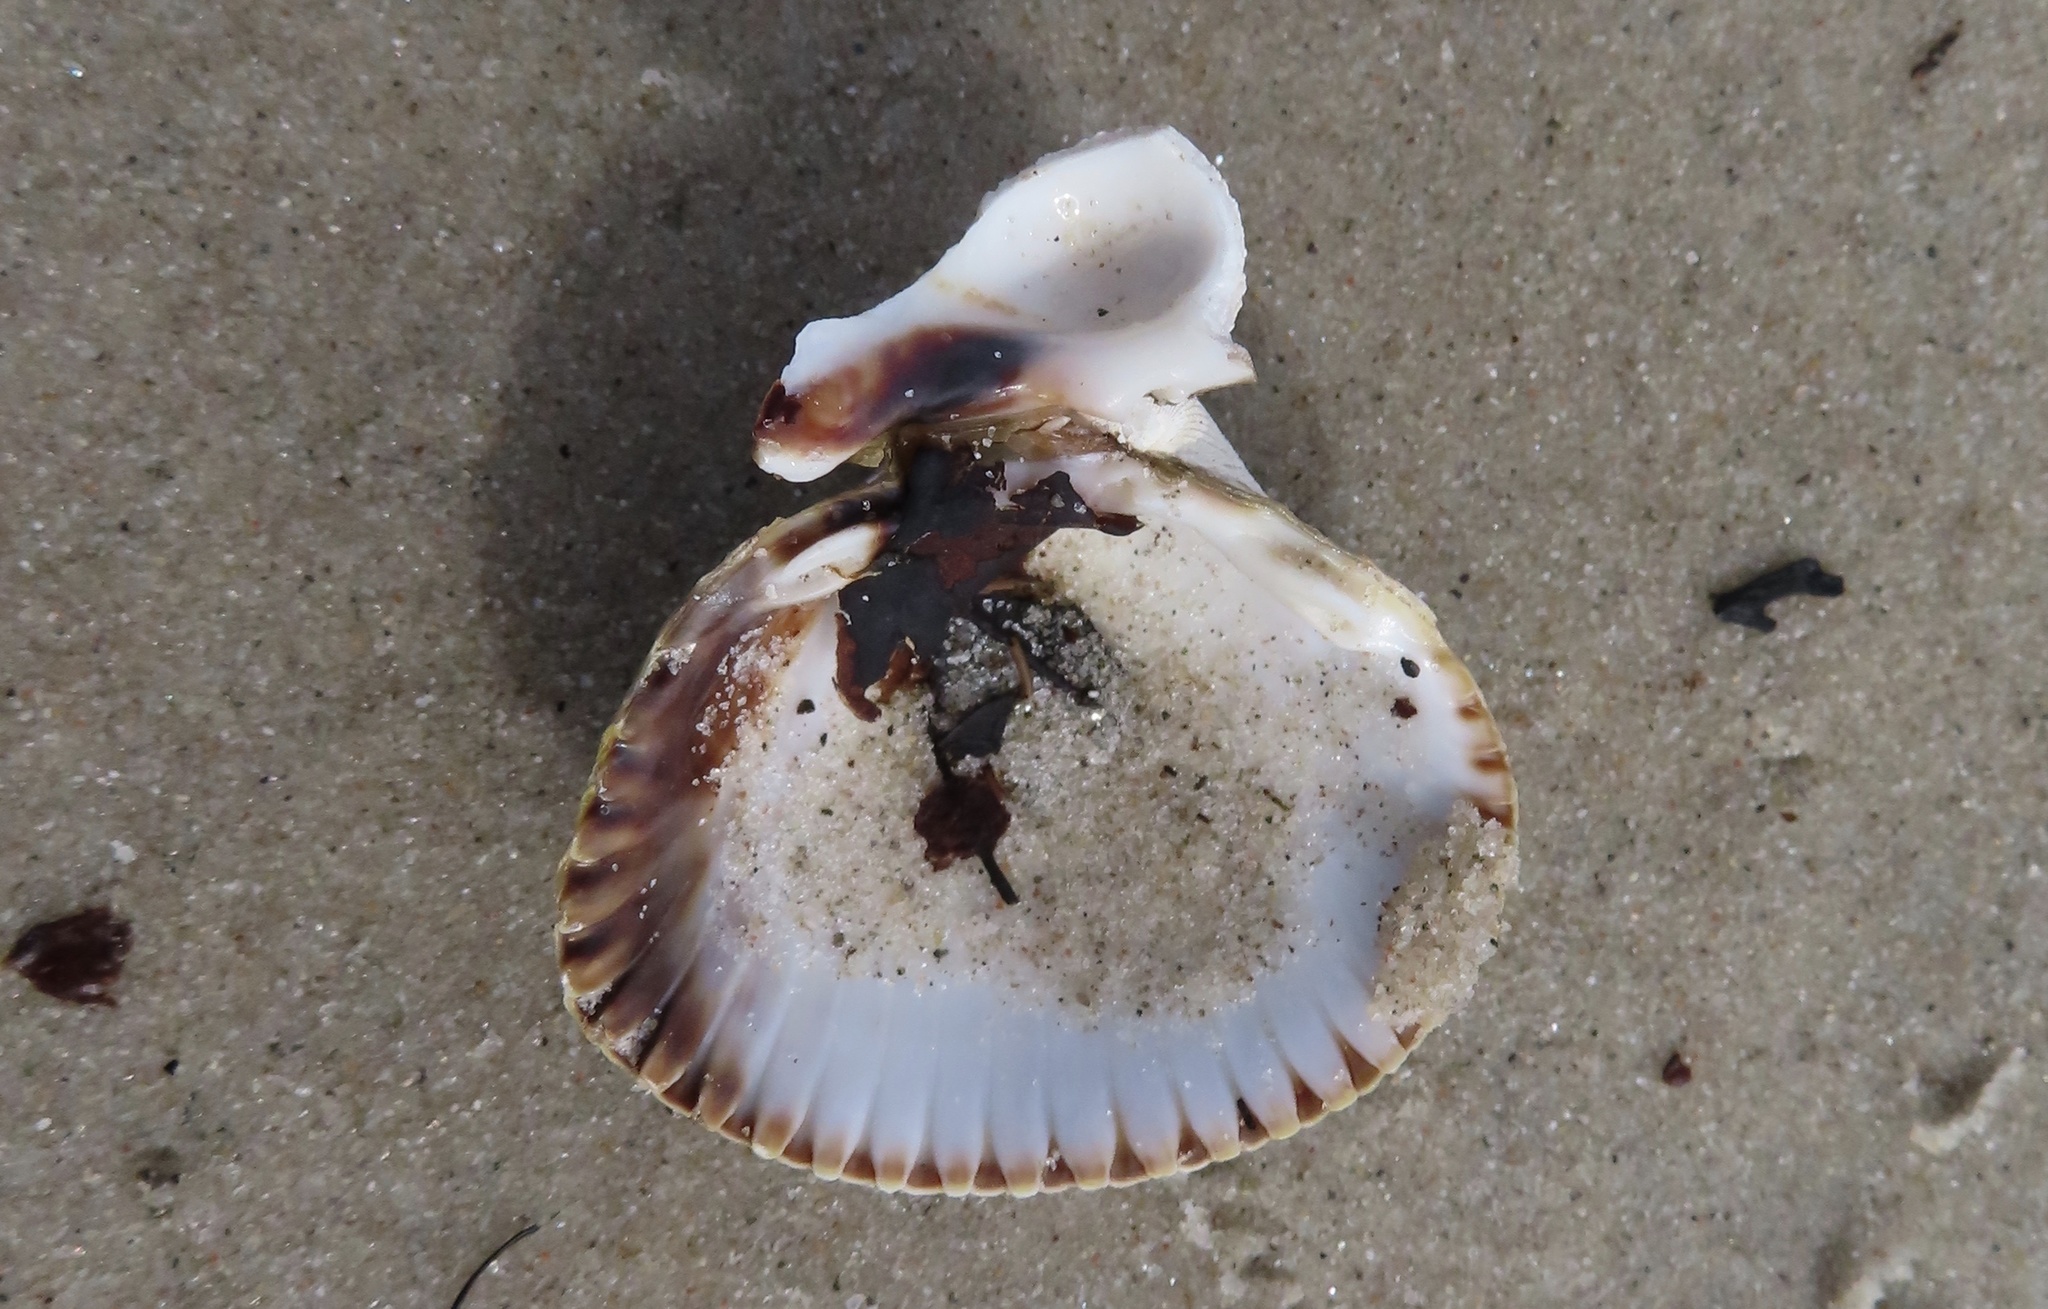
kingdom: Animalia
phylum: Mollusca
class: Bivalvia
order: Cardiida
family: Cardiidae
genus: Cerastoderma
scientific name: Cerastoderma edule
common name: Common cockle
